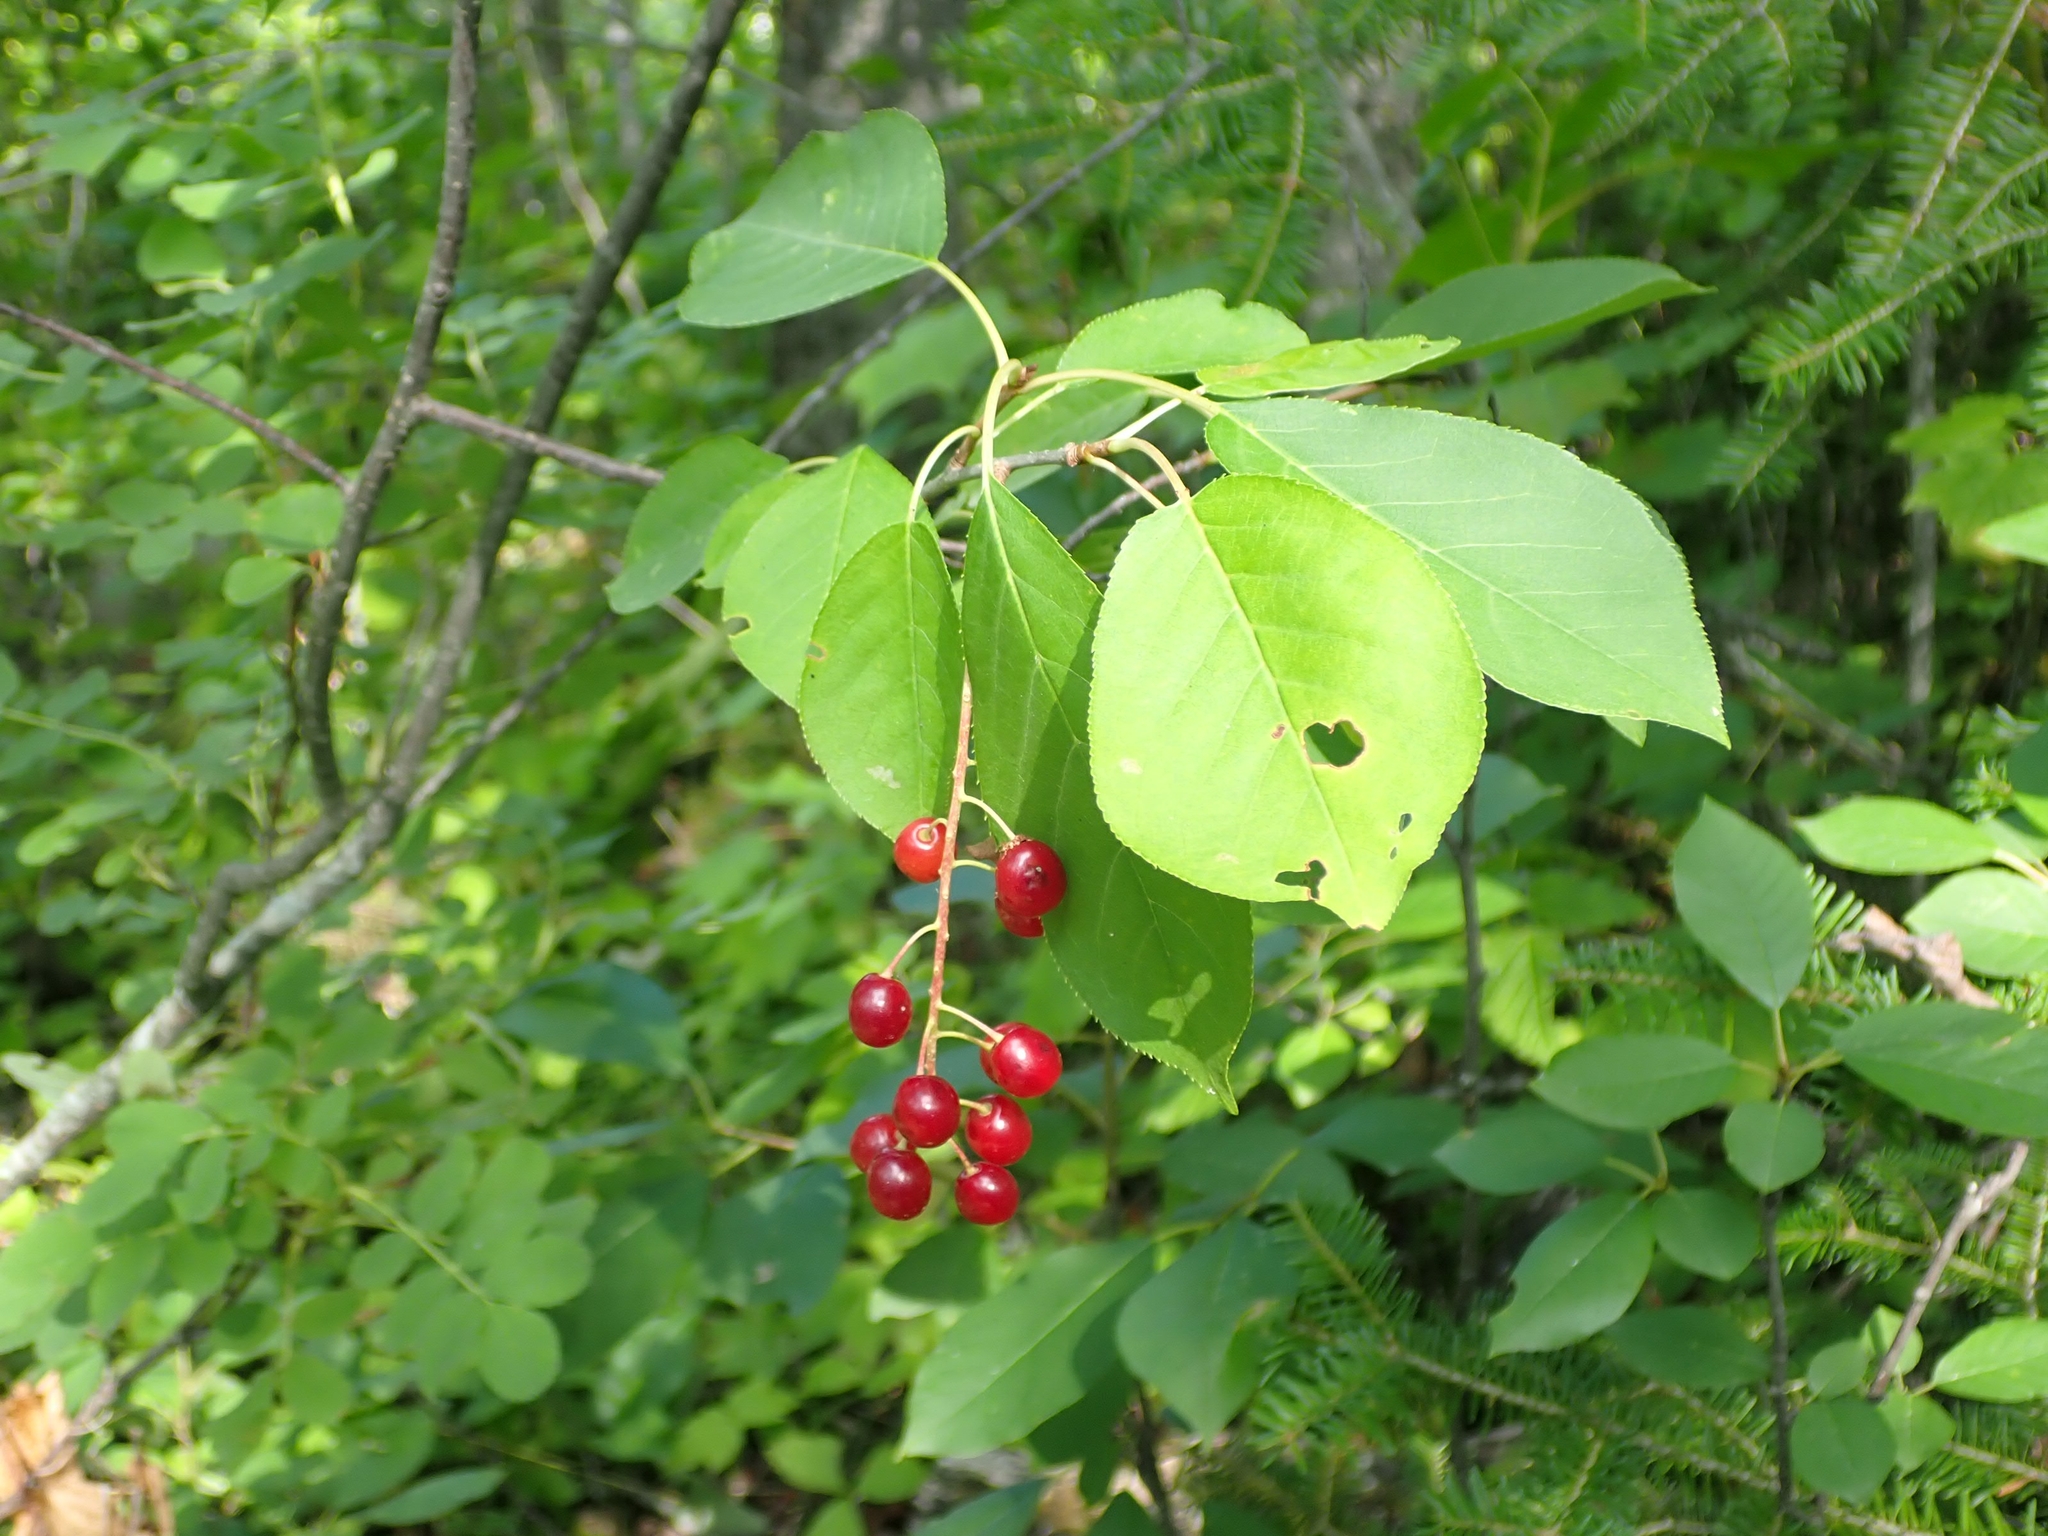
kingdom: Plantae
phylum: Tracheophyta
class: Magnoliopsida
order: Rosales
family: Rosaceae
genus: Prunus
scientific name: Prunus virginiana
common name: Chokecherry
